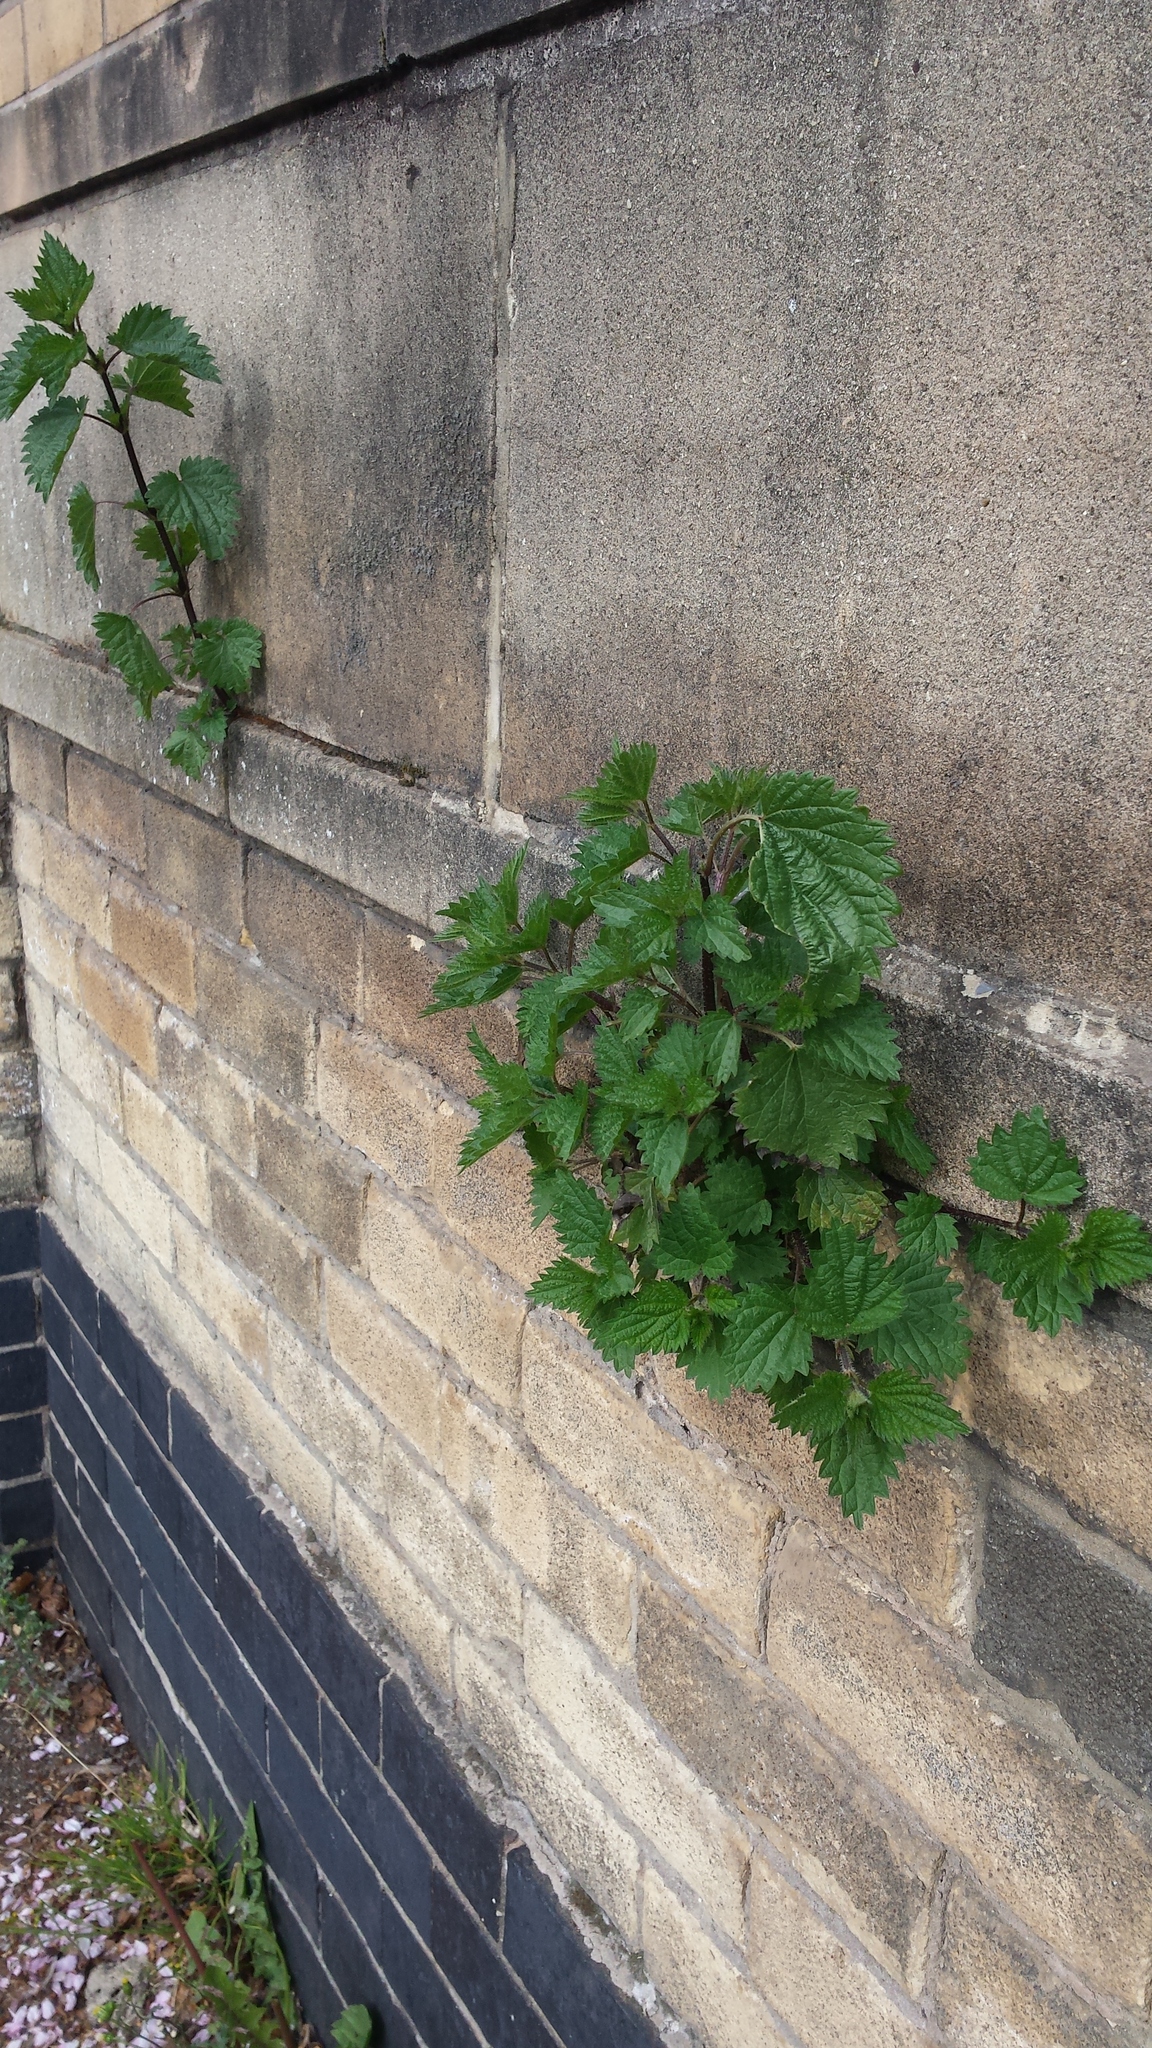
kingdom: Plantae
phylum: Tracheophyta
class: Magnoliopsida
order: Rosales
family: Urticaceae
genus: Urtica
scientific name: Urtica dioica
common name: Common nettle
